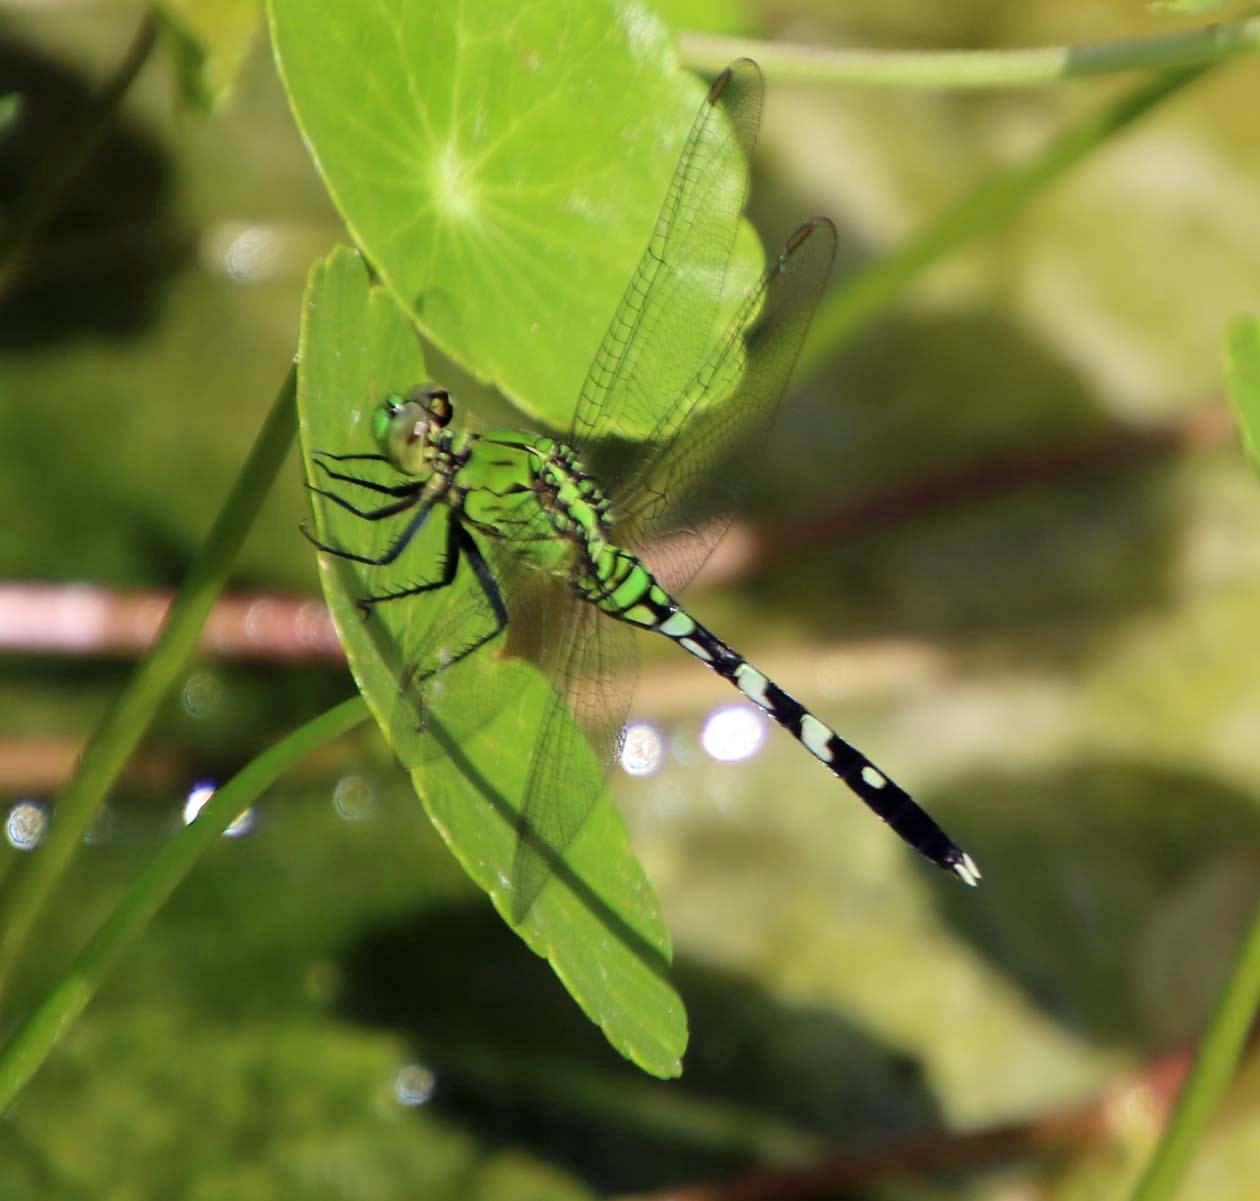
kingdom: Animalia
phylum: Arthropoda
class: Insecta
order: Odonata
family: Libellulidae
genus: Erythemis
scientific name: Erythemis simplicicollis
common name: Eastern pondhawk
